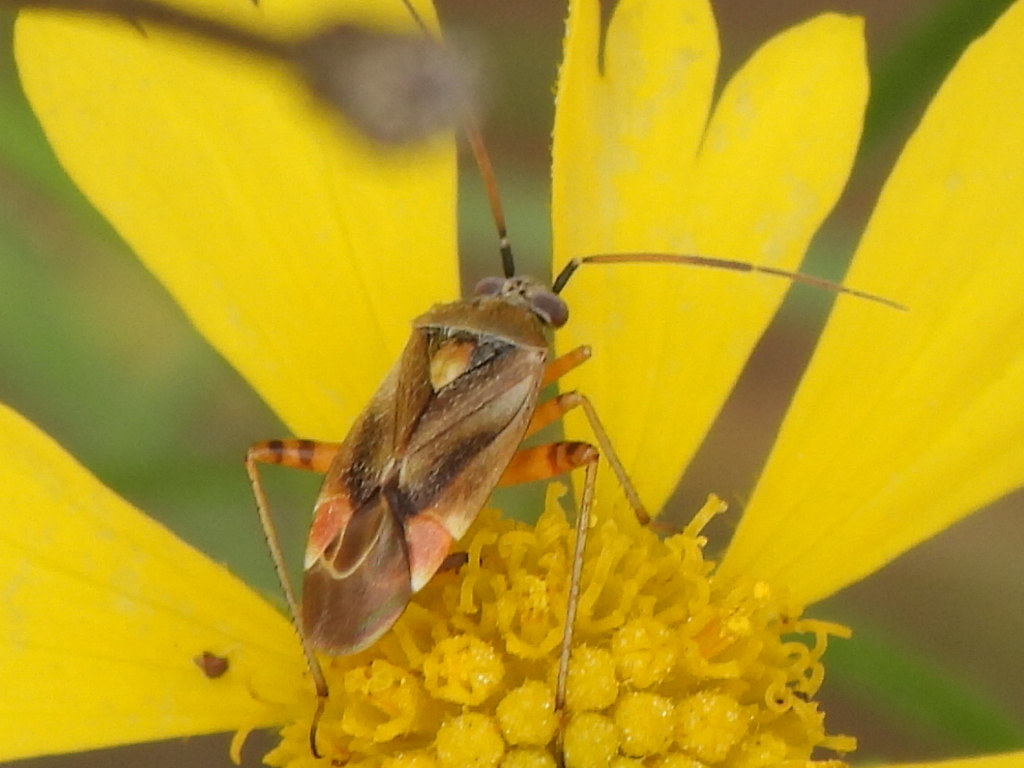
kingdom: Animalia
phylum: Arthropoda
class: Insecta
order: Hemiptera
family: Miridae
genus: Polymerus
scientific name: Polymerus basalis
